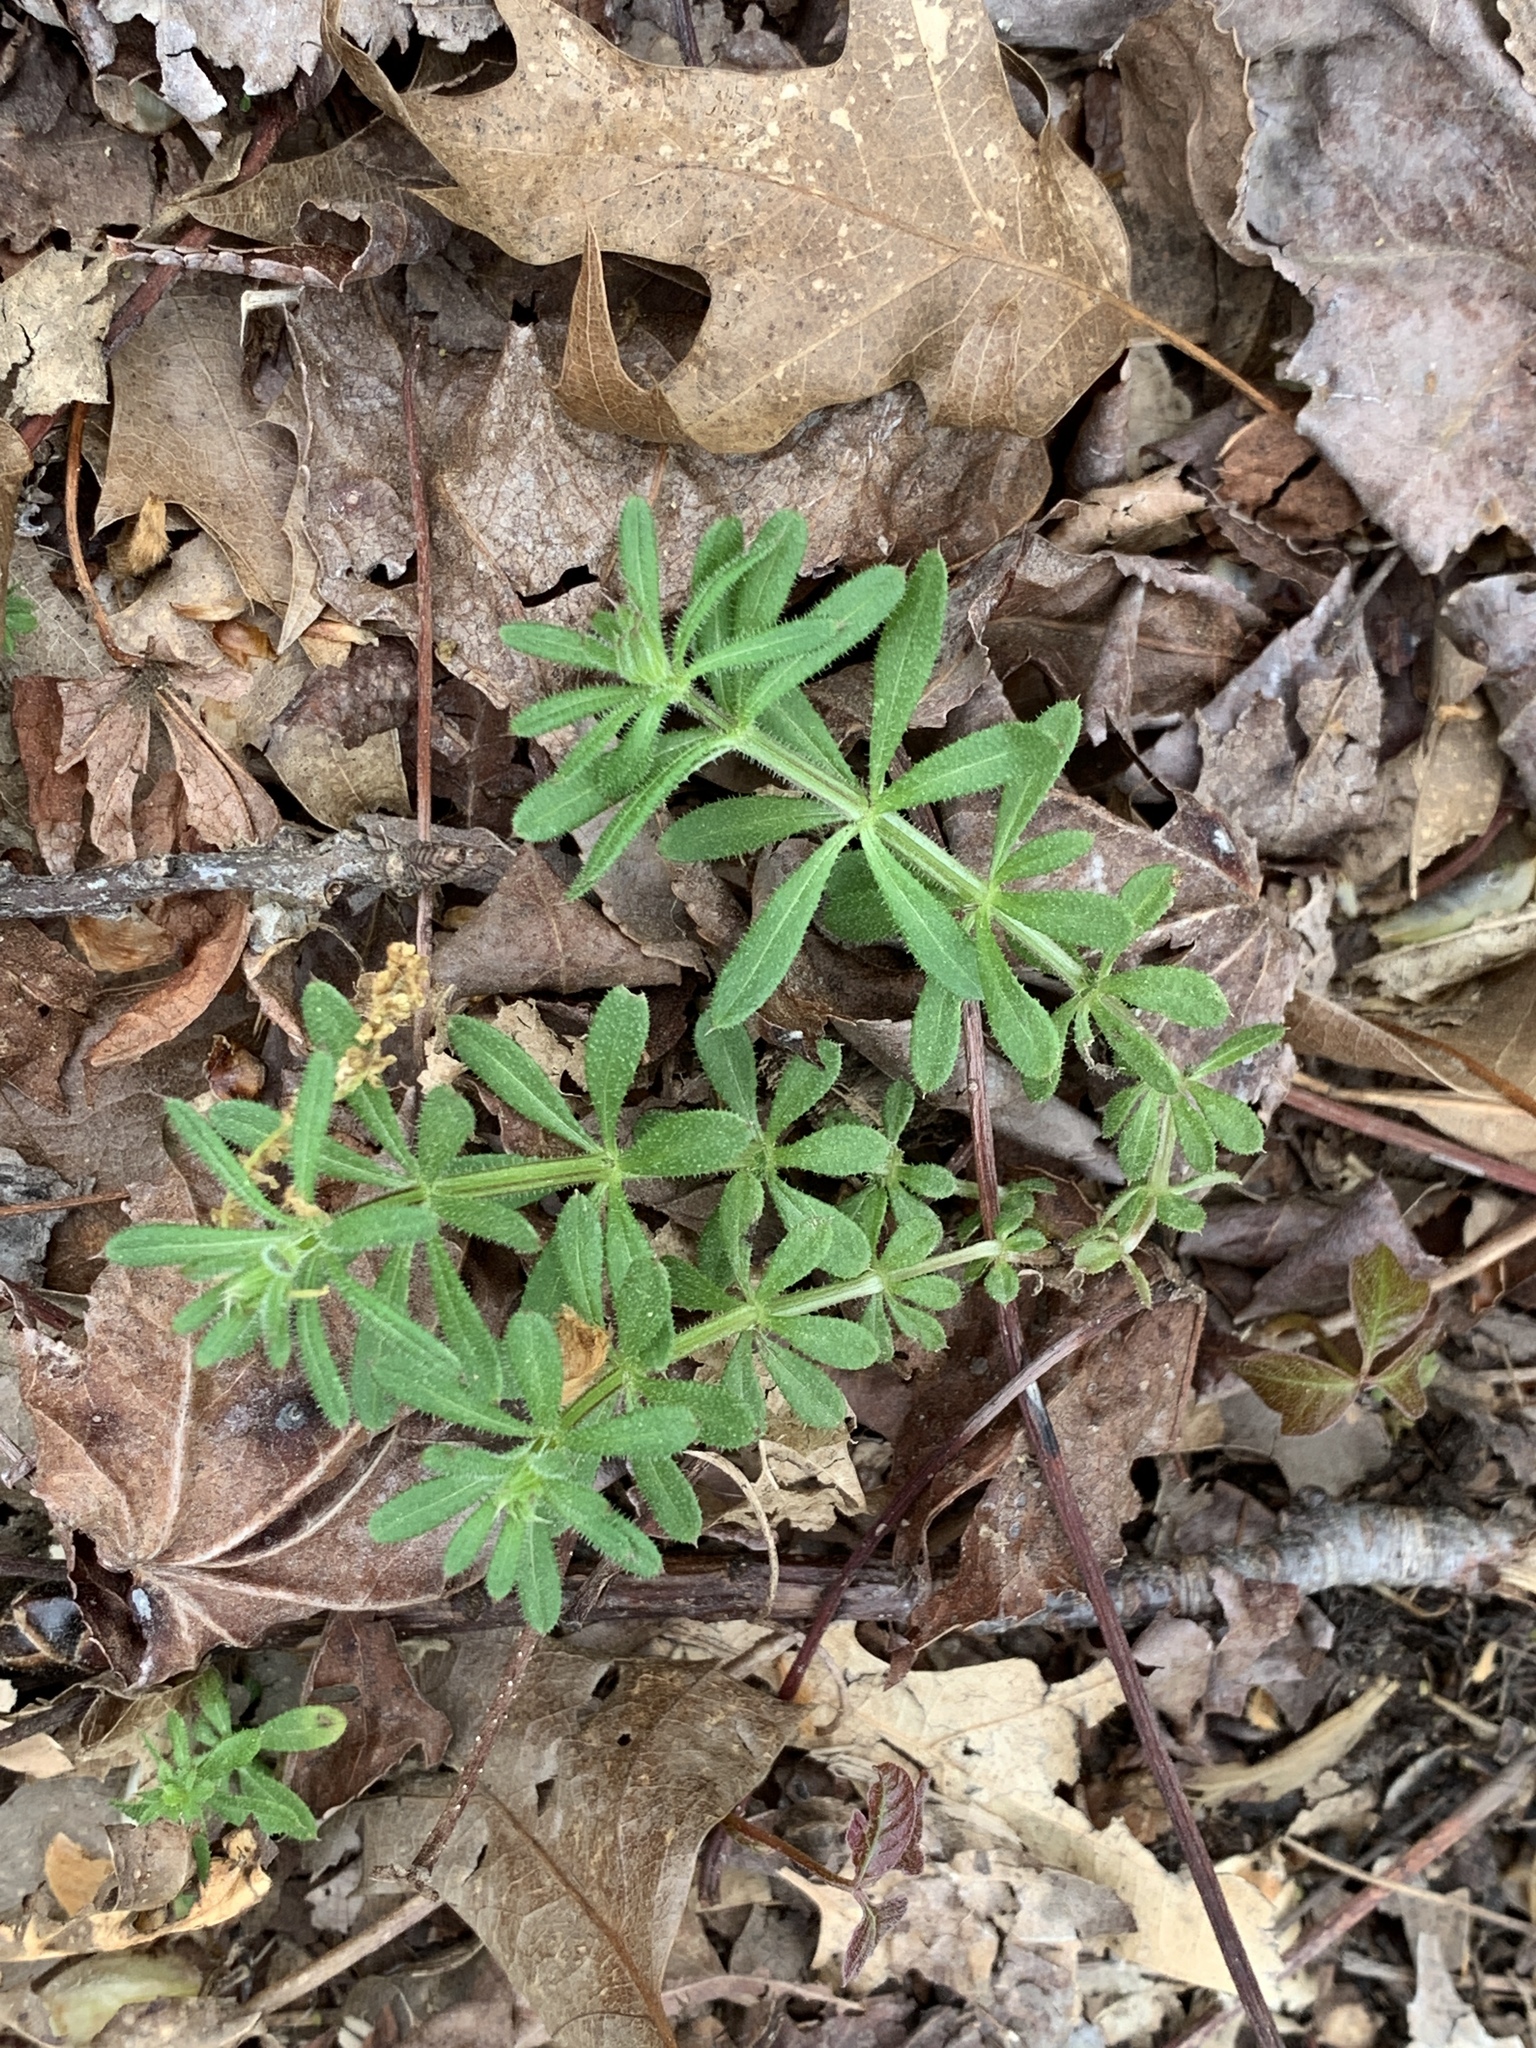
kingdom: Plantae
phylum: Tracheophyta
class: Magnoliopsida
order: Gentianales
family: Rubiaceae
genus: Galium
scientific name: Galium aparine
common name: Cleavers
